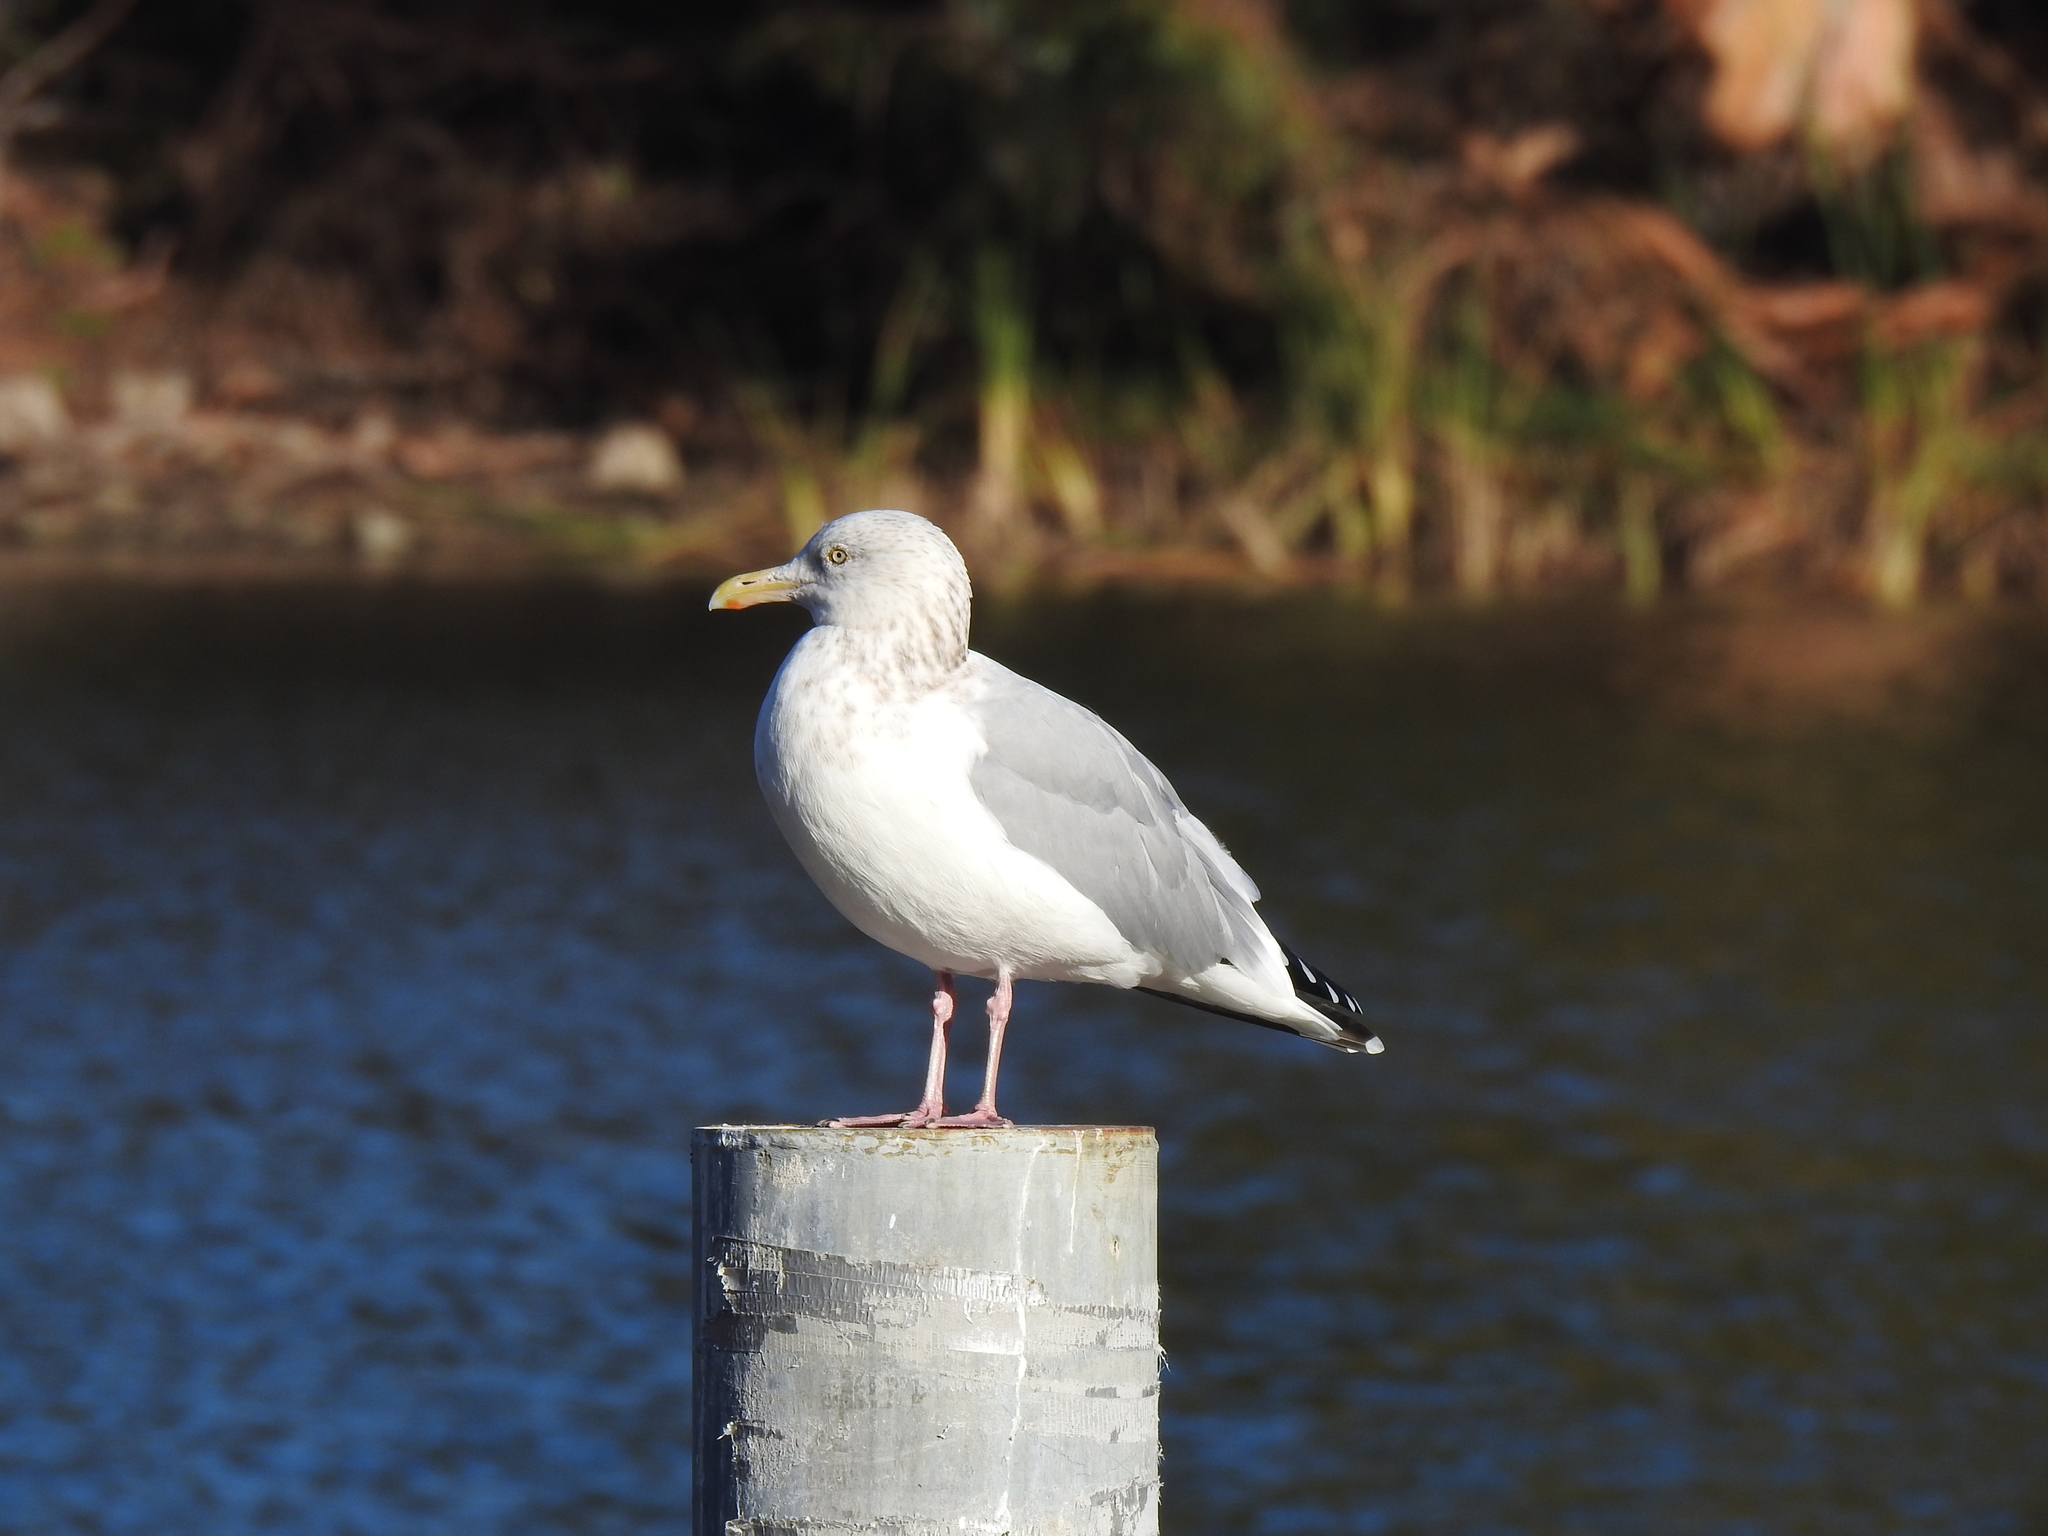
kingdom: Animalia
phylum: Chordata
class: Aves
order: Charadriiformes
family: Laridae
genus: Larus
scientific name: Larus argentatus
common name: Herring gull
